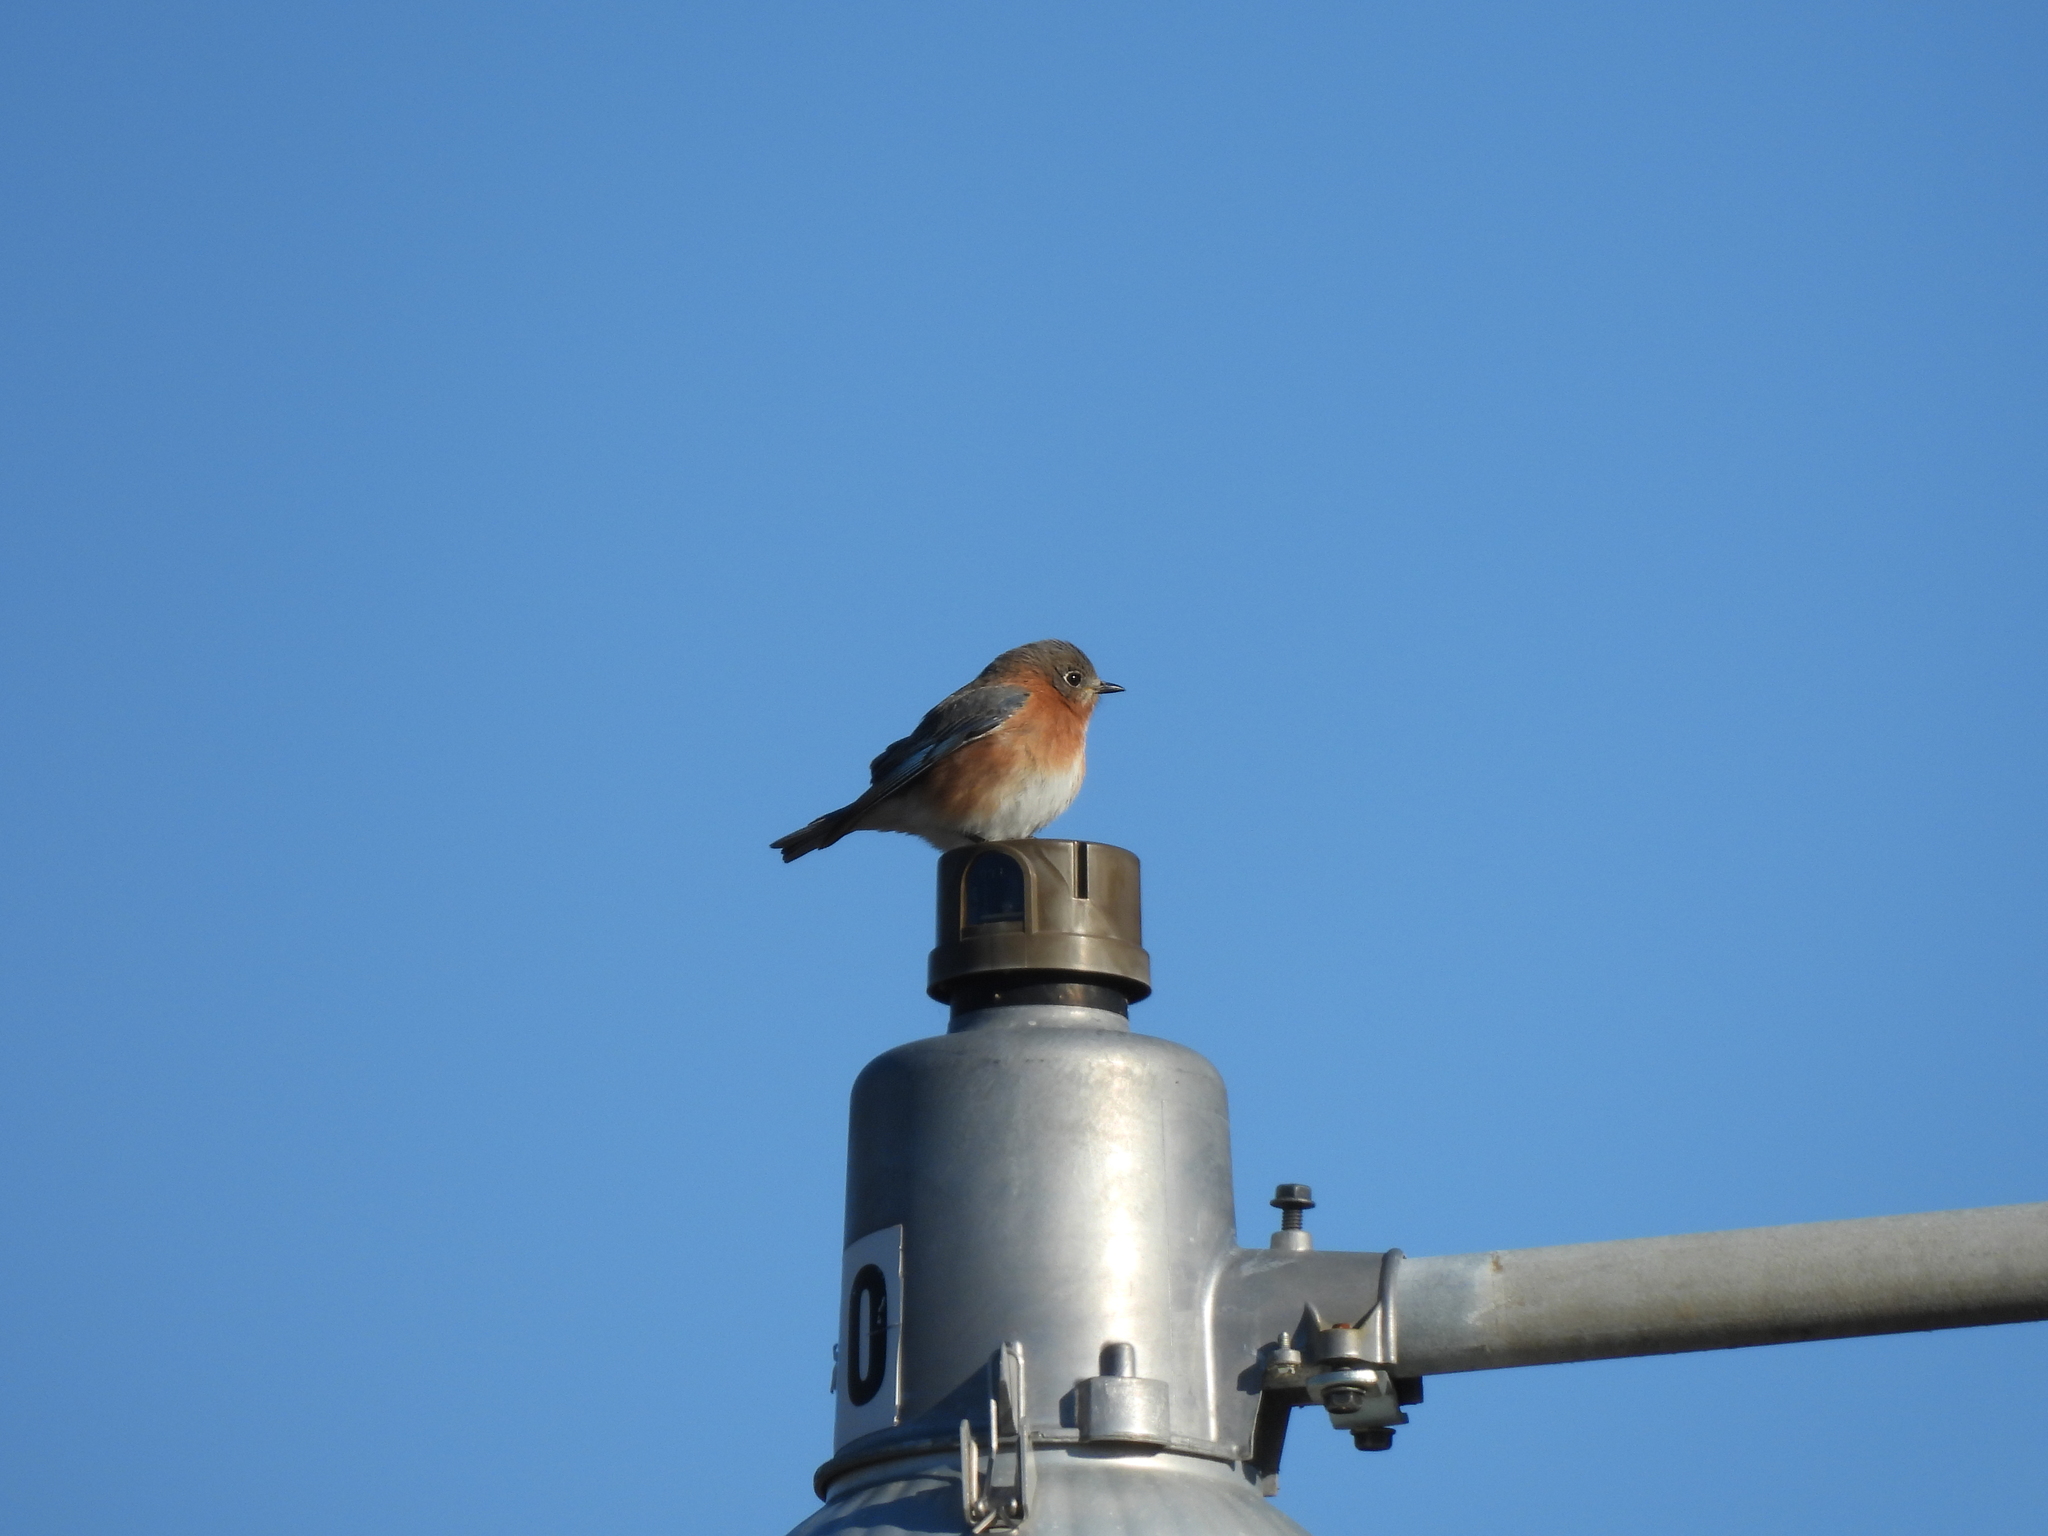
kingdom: Animalia
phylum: Chordata
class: Aves
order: Passeriformes
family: Turdidae
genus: Sialia
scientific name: Sialia sialis
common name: Eastern bluebird
